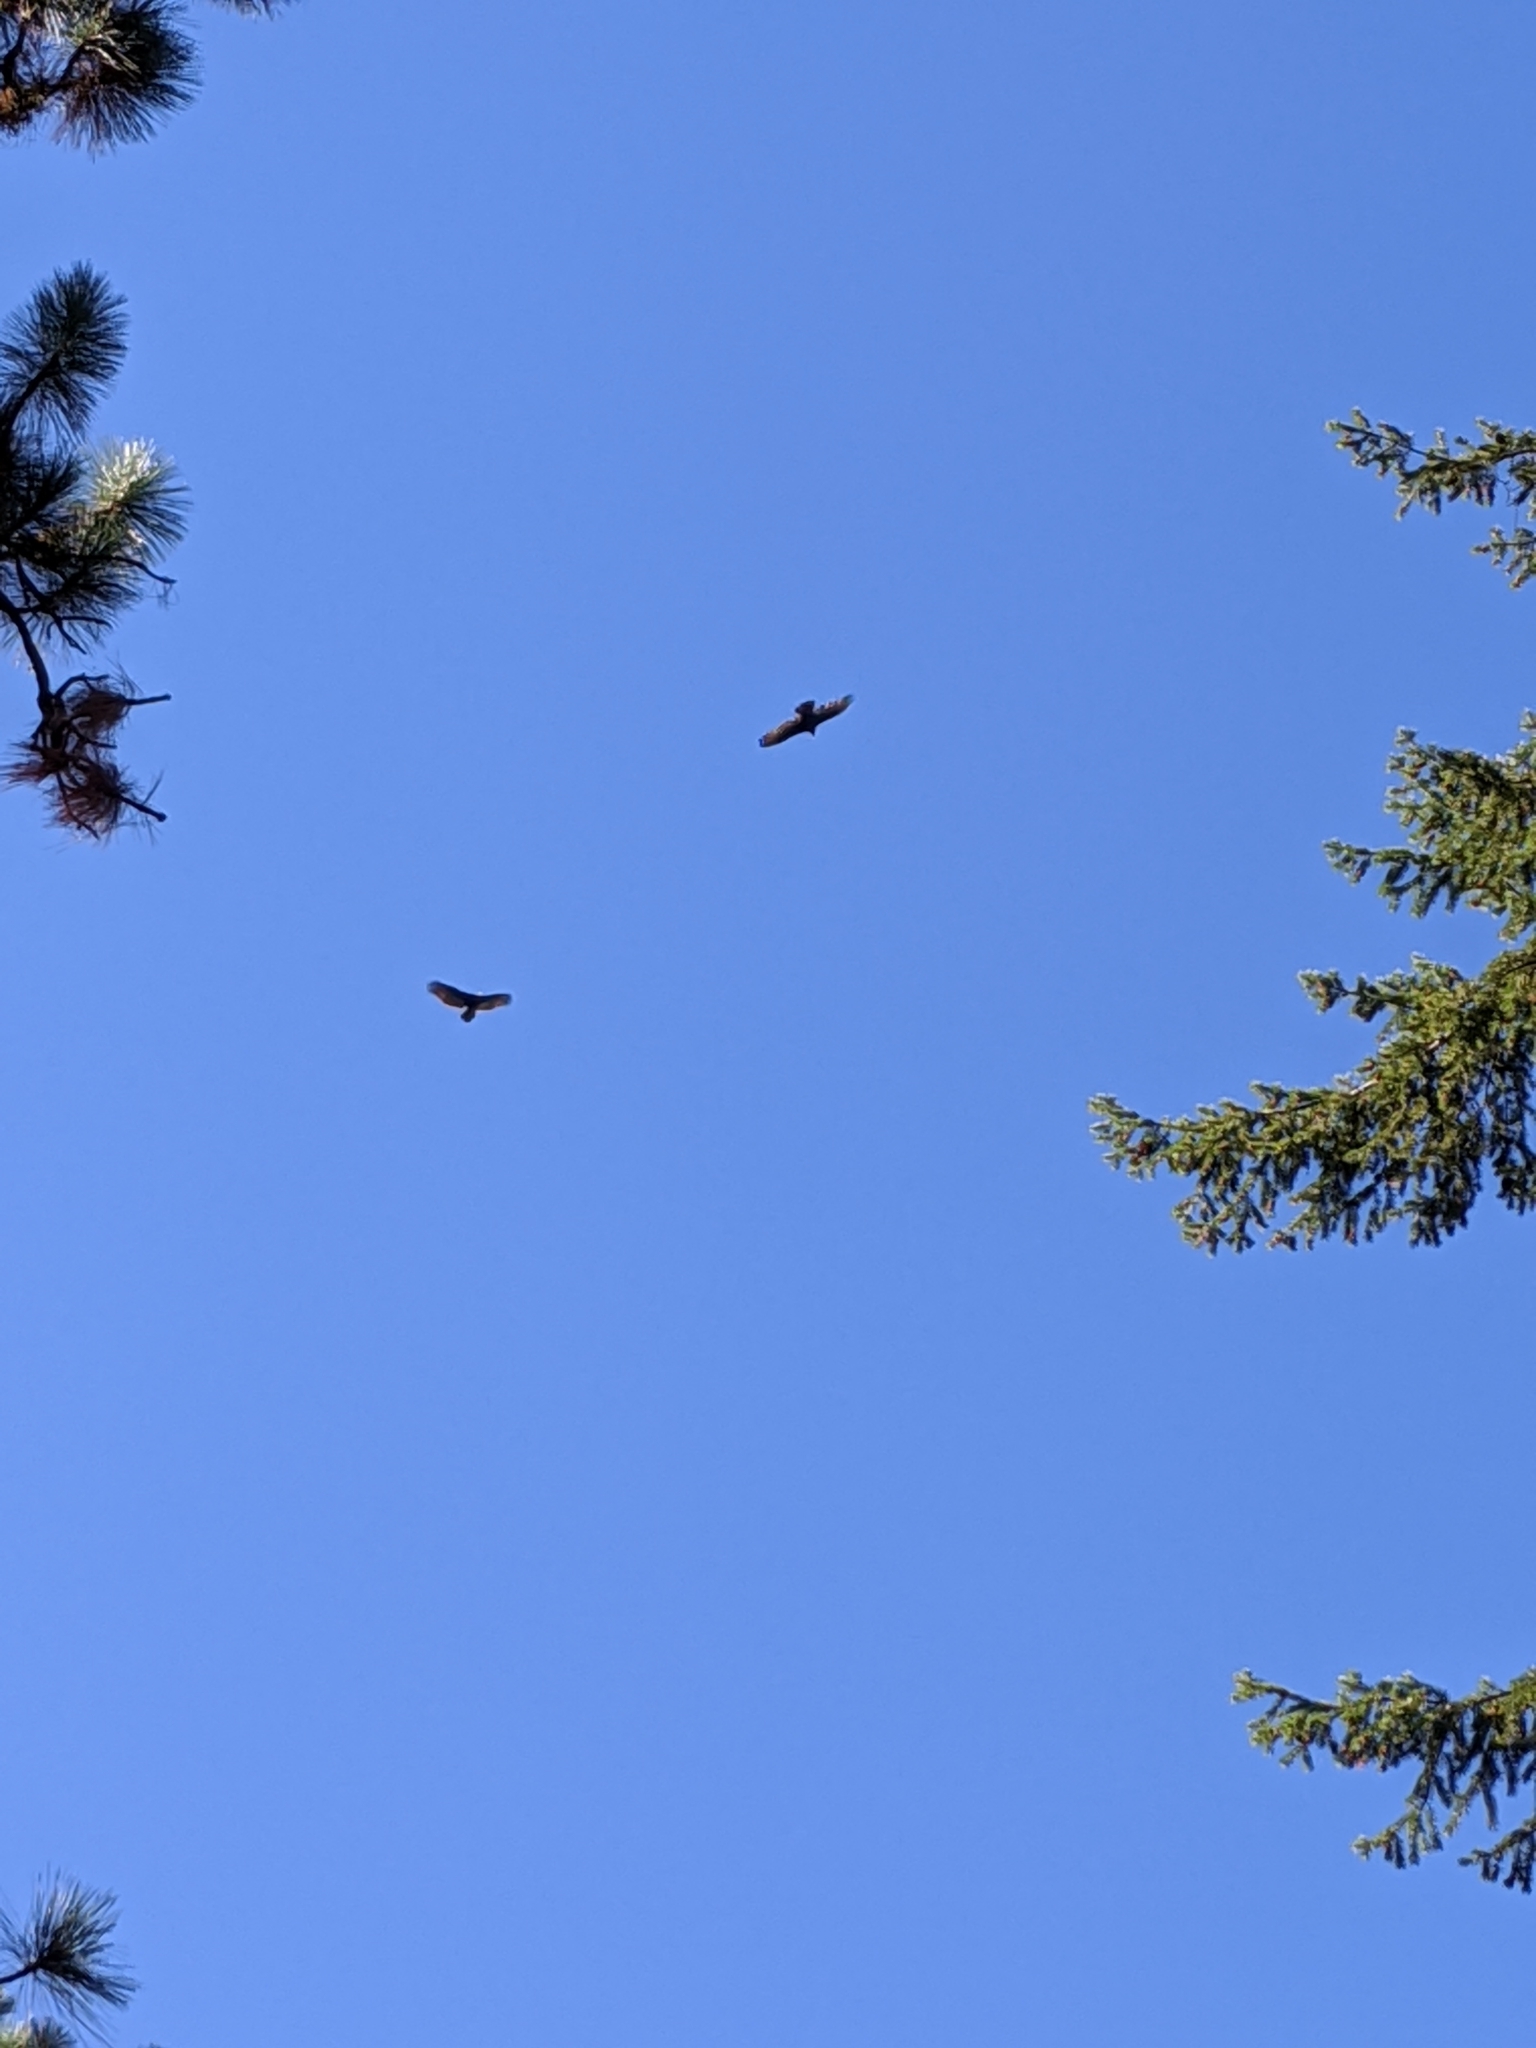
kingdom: Animalia
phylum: Chordata
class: Aves
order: Accipitriformes
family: Cathartidae
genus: Cathartes
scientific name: Cathartes aura
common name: Turkey vulture
